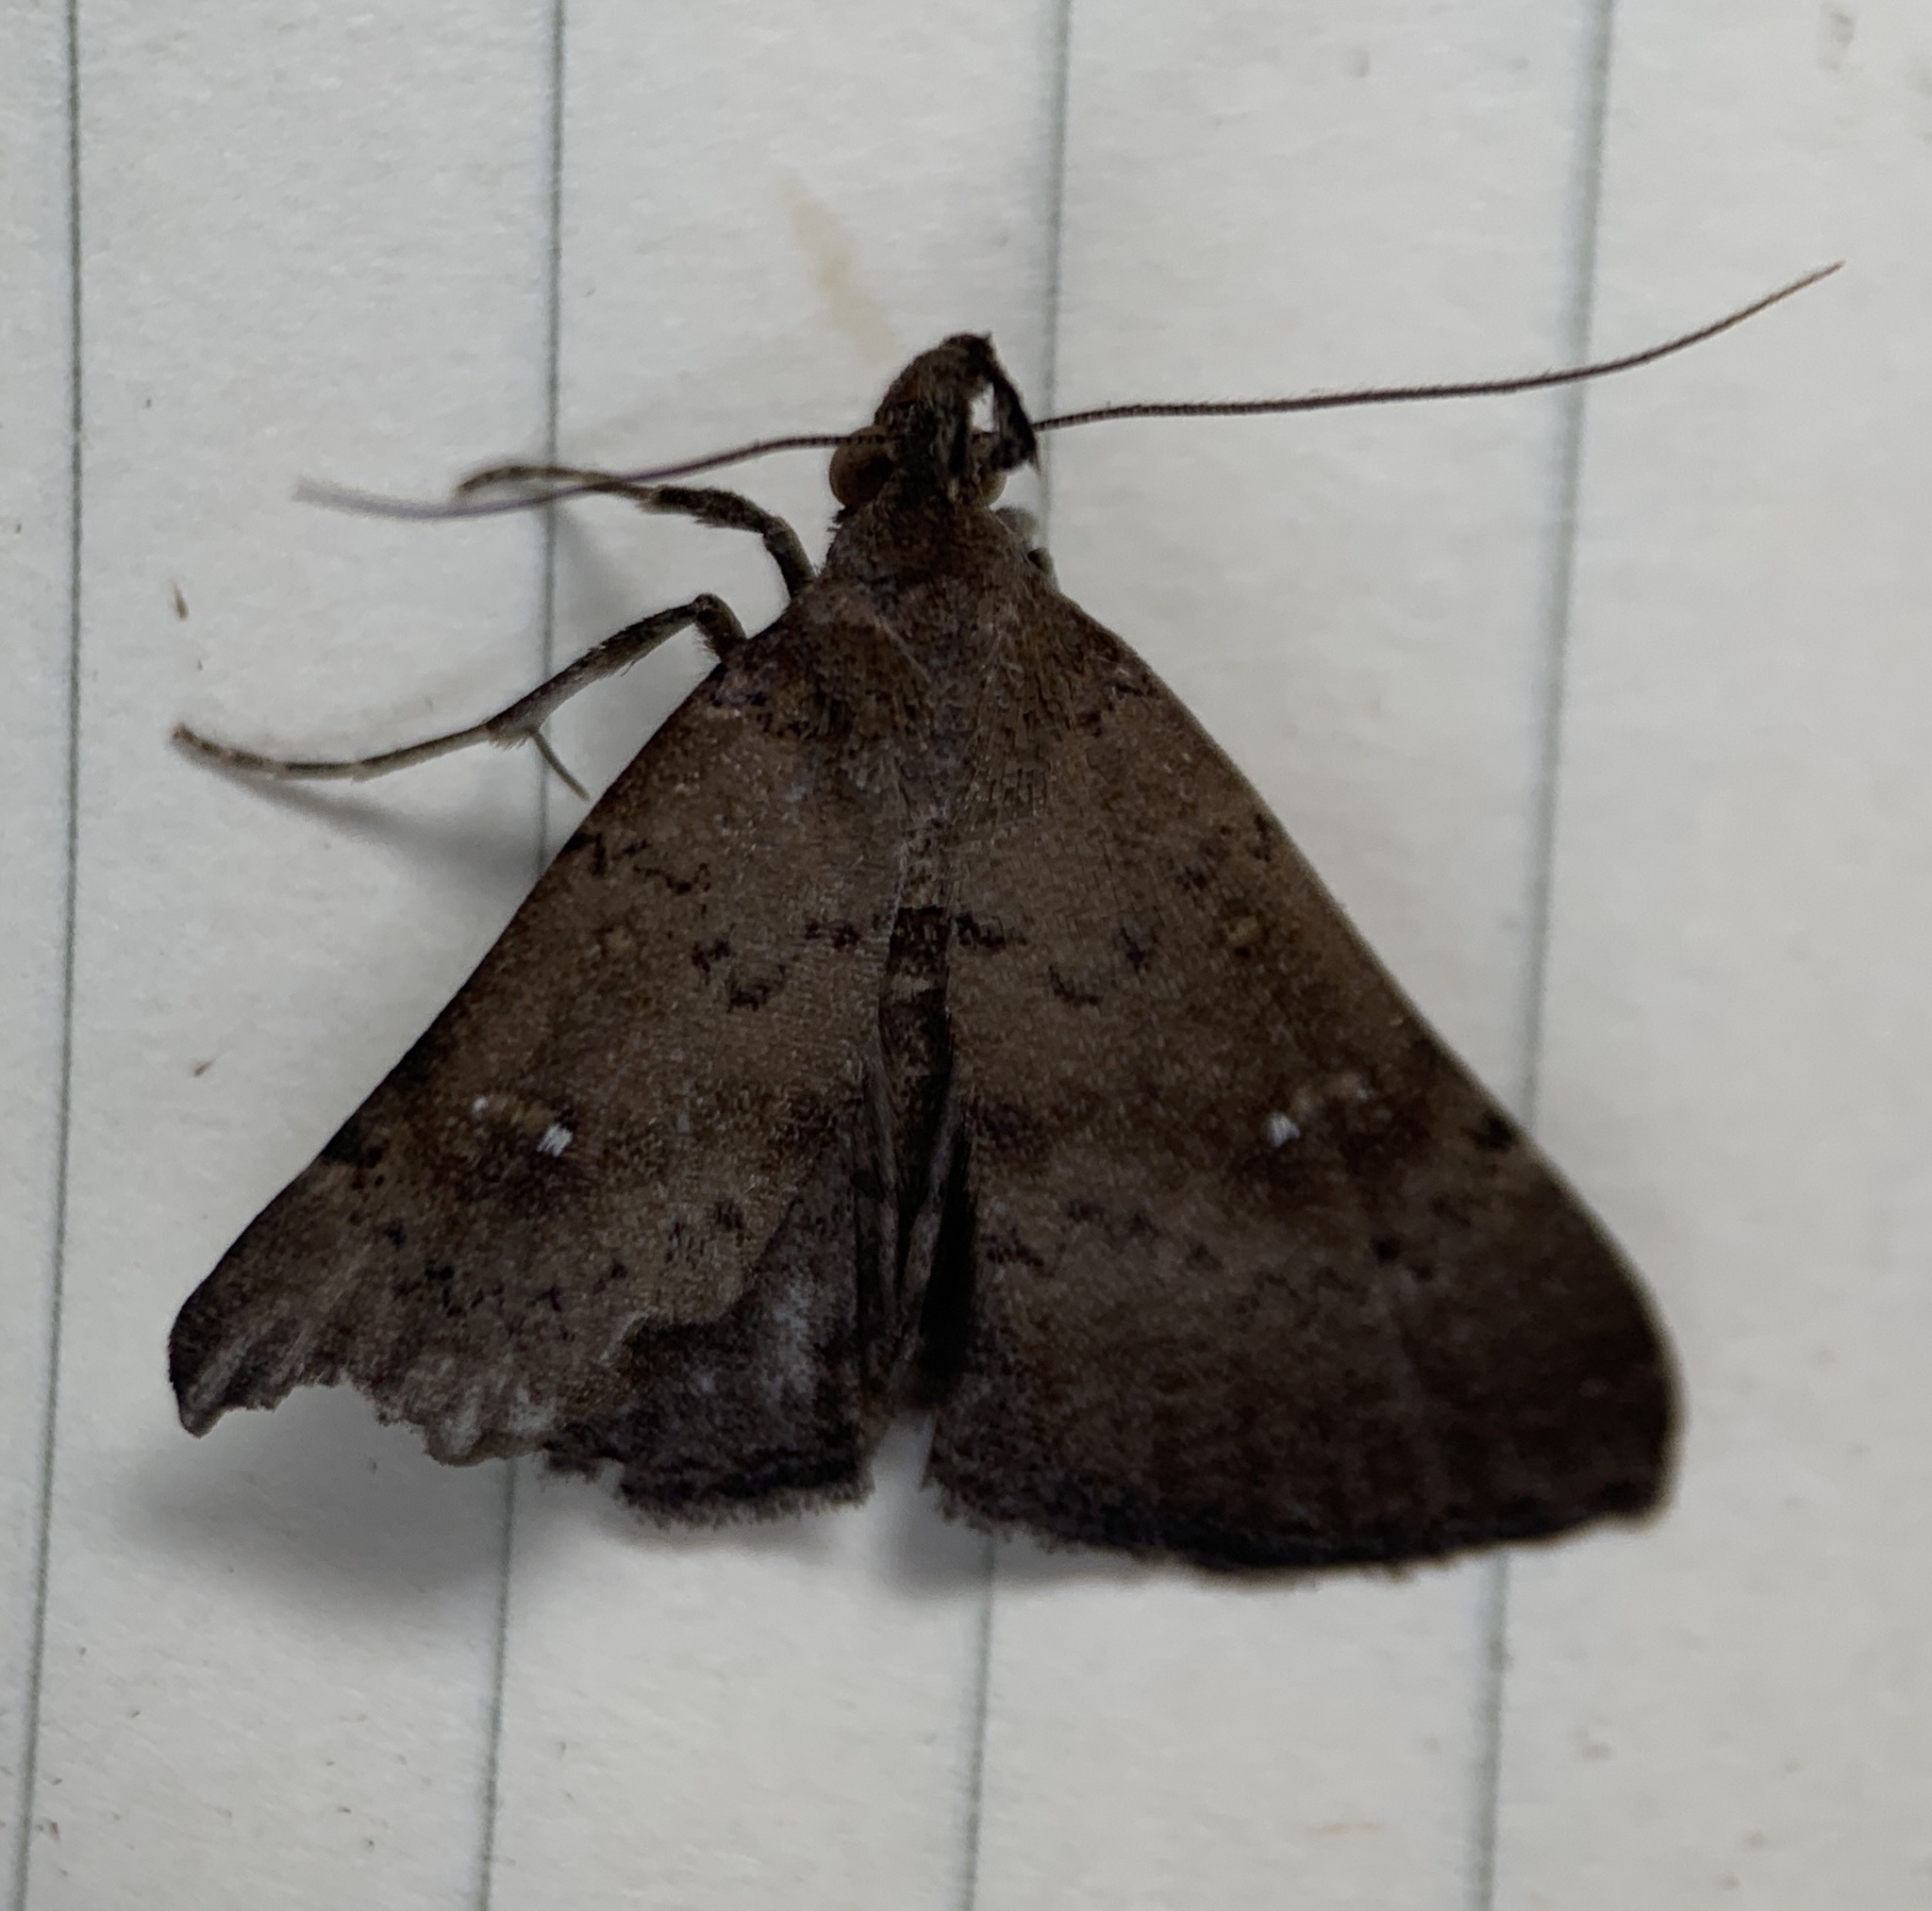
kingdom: Animalia
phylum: Arthropoda
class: Insecta
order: Lepidoptera
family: Erebidae
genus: Hypenula
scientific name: Hypenula cacuminalis
